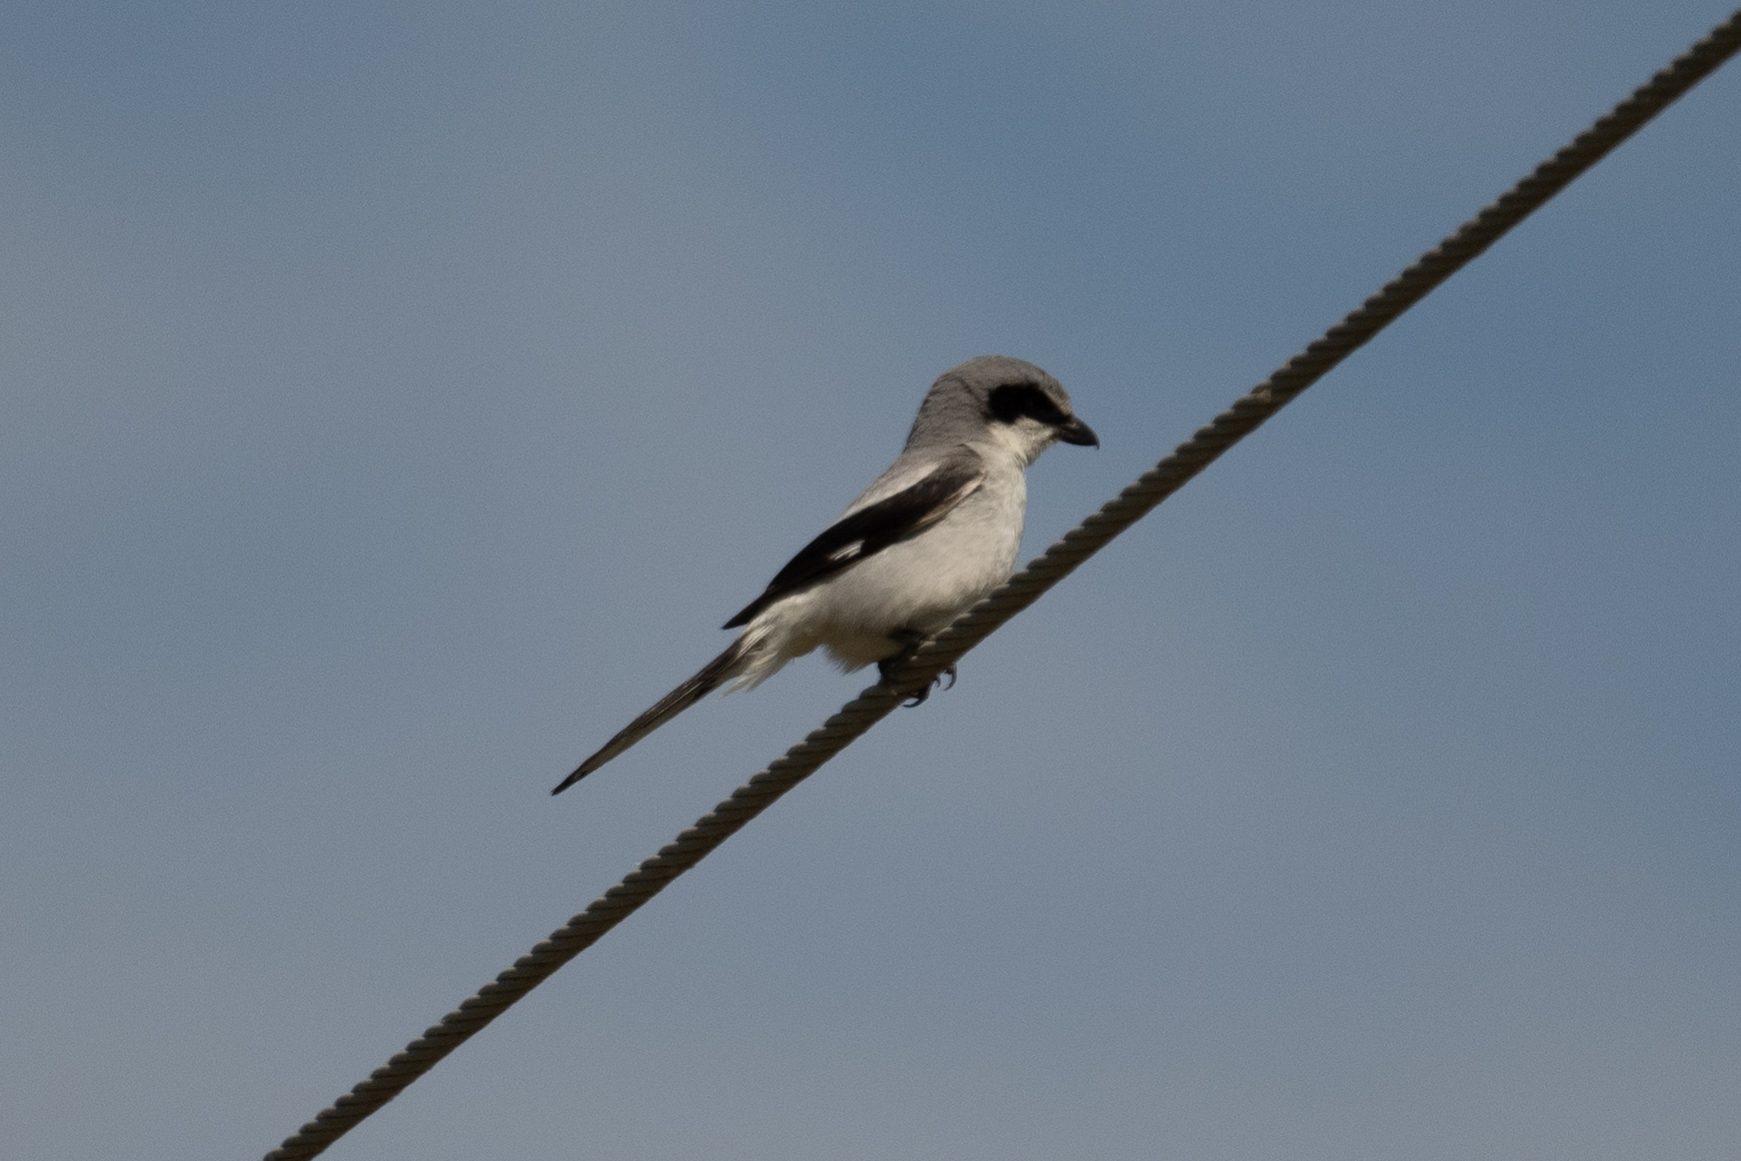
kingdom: Animalia
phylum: Chordata
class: Aves
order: Passeriformes
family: Laniidae
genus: Lanius
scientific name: Lanius ludovicianus
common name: Loggerhead shrike
